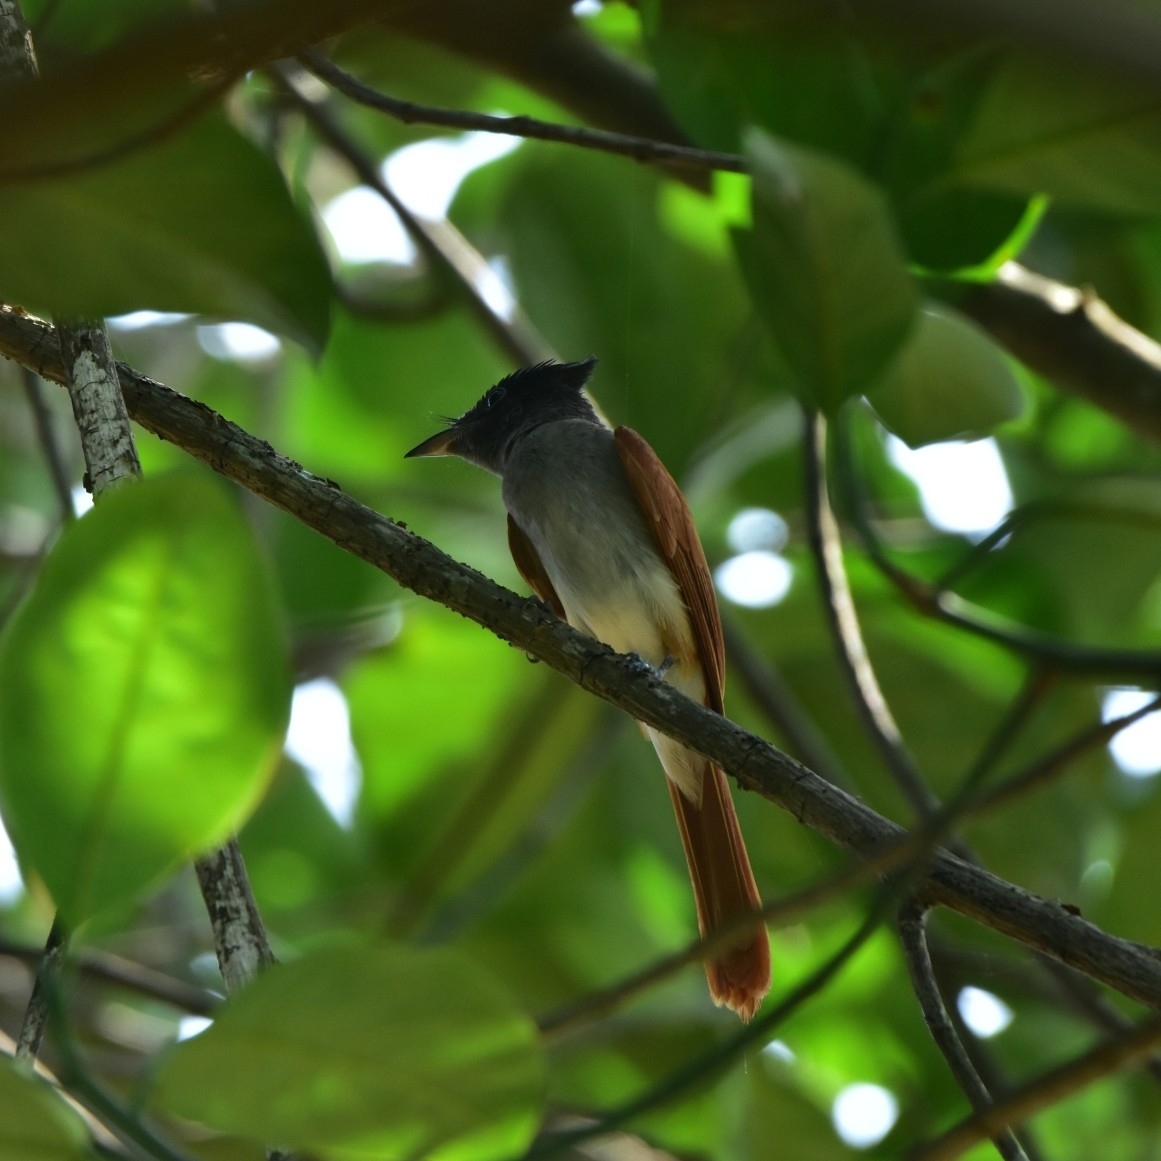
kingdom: Animalia
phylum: Chordata
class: Aves
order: Passeriformes
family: Monarchidae
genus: Terpsiphone
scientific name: Terpsiphone paradisi
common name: Indian paradise flycatcher
